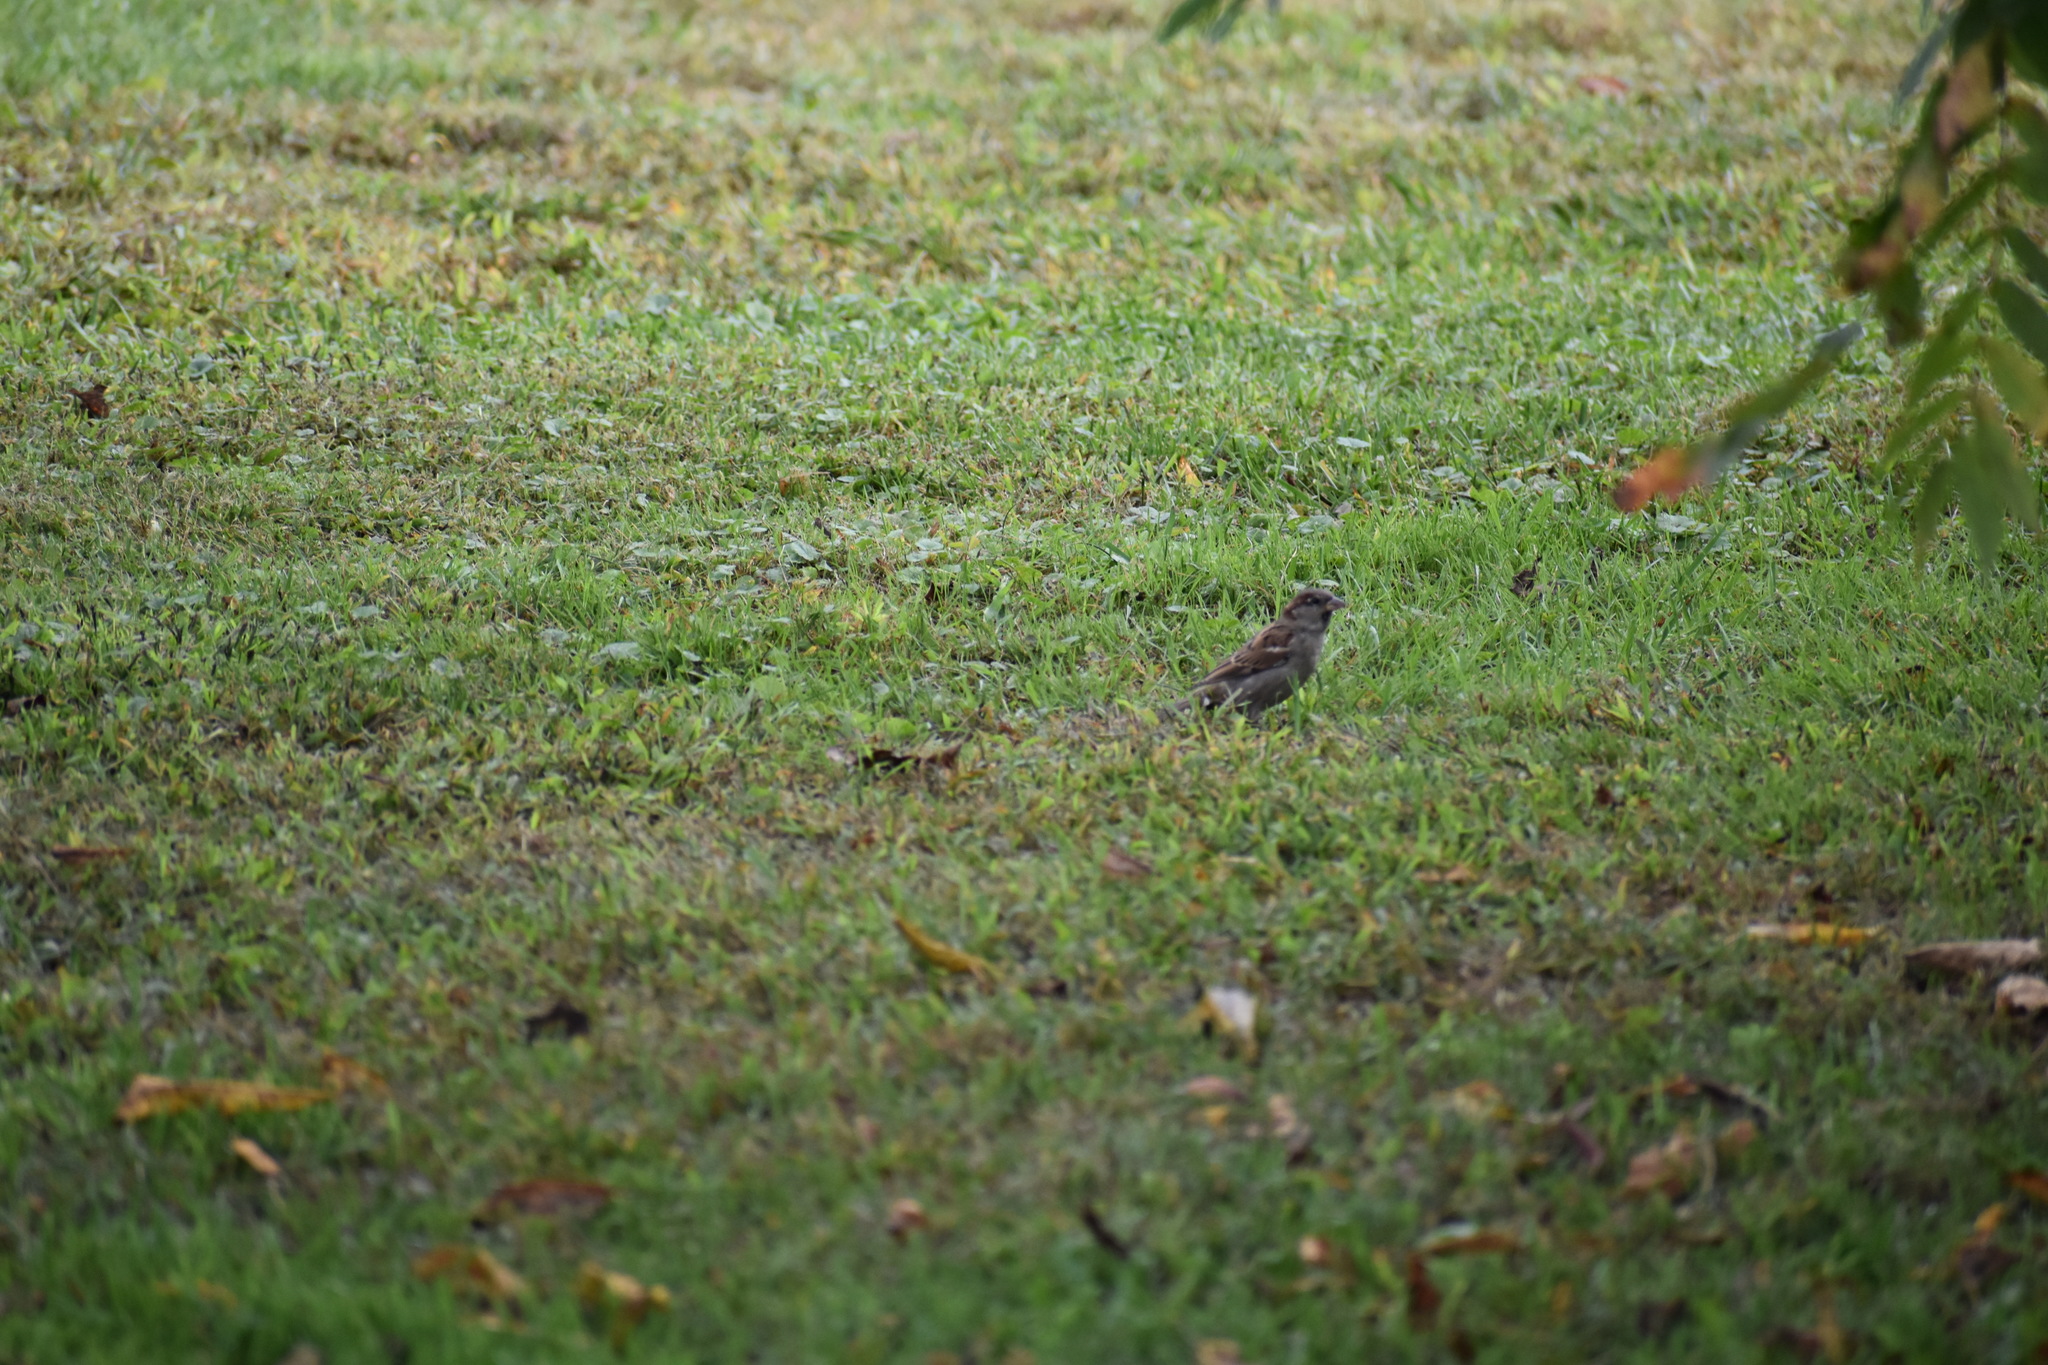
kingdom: Animalia
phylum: Chordata
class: Aves
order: Passeriformes
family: Passeridae
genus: Passer
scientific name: Passer domesticus
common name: House sparrow
